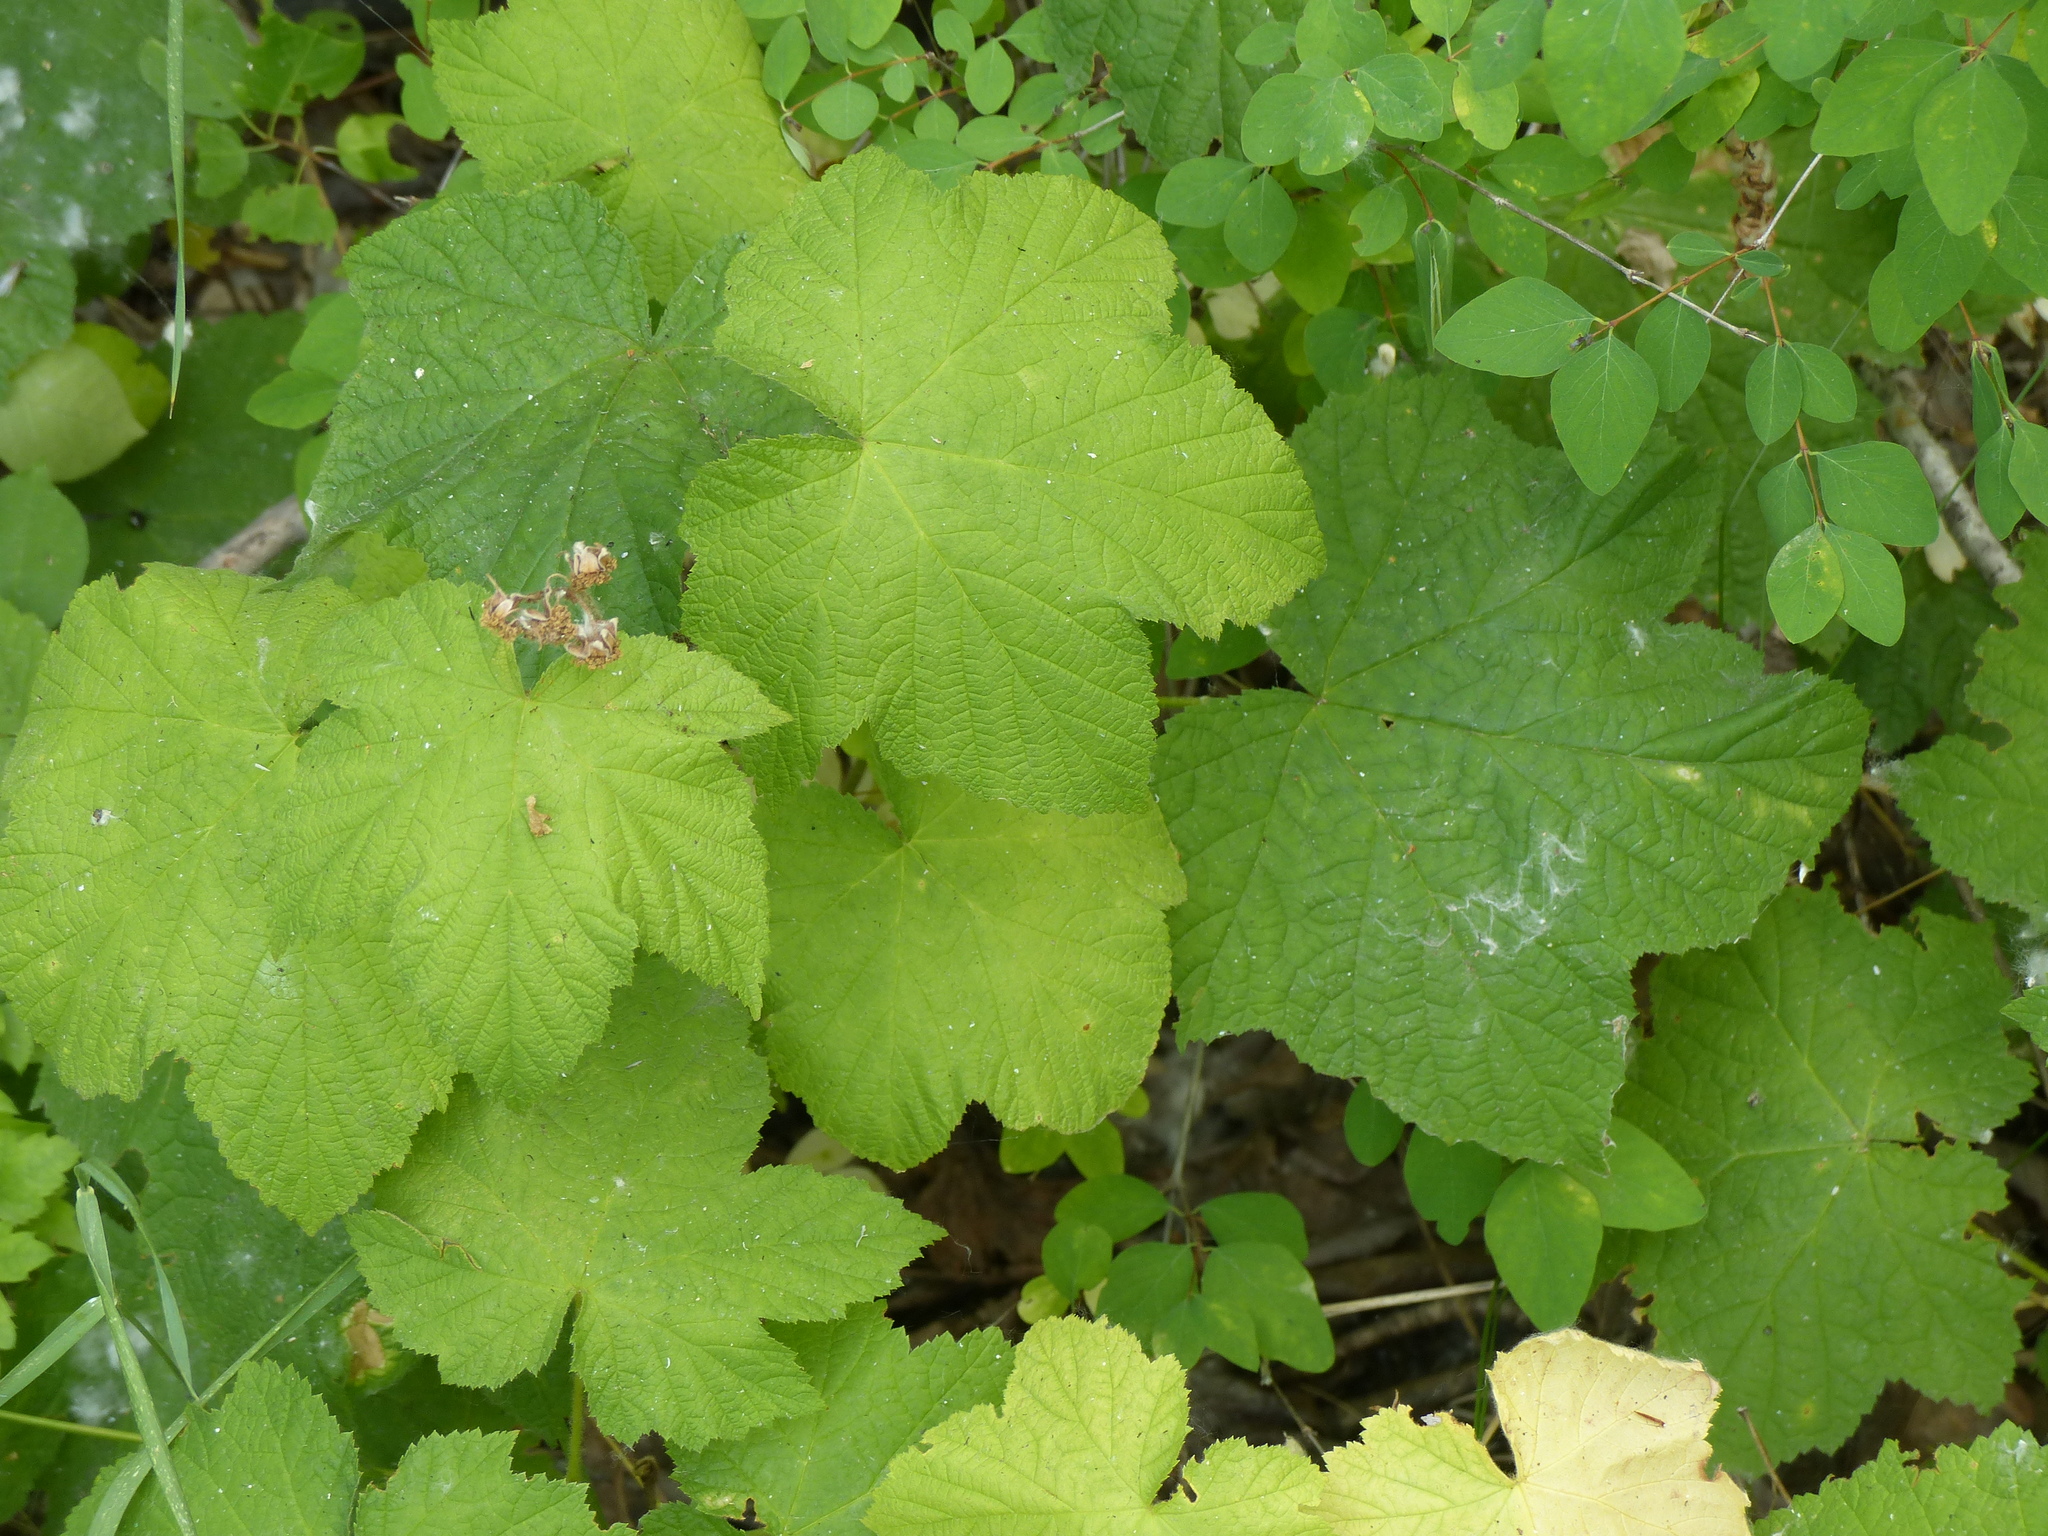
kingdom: Plantae
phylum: Tracheophyta
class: Magnoliopsida
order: Rosales
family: Rosaceae
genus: Rubus
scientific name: Rubus parviflorus
